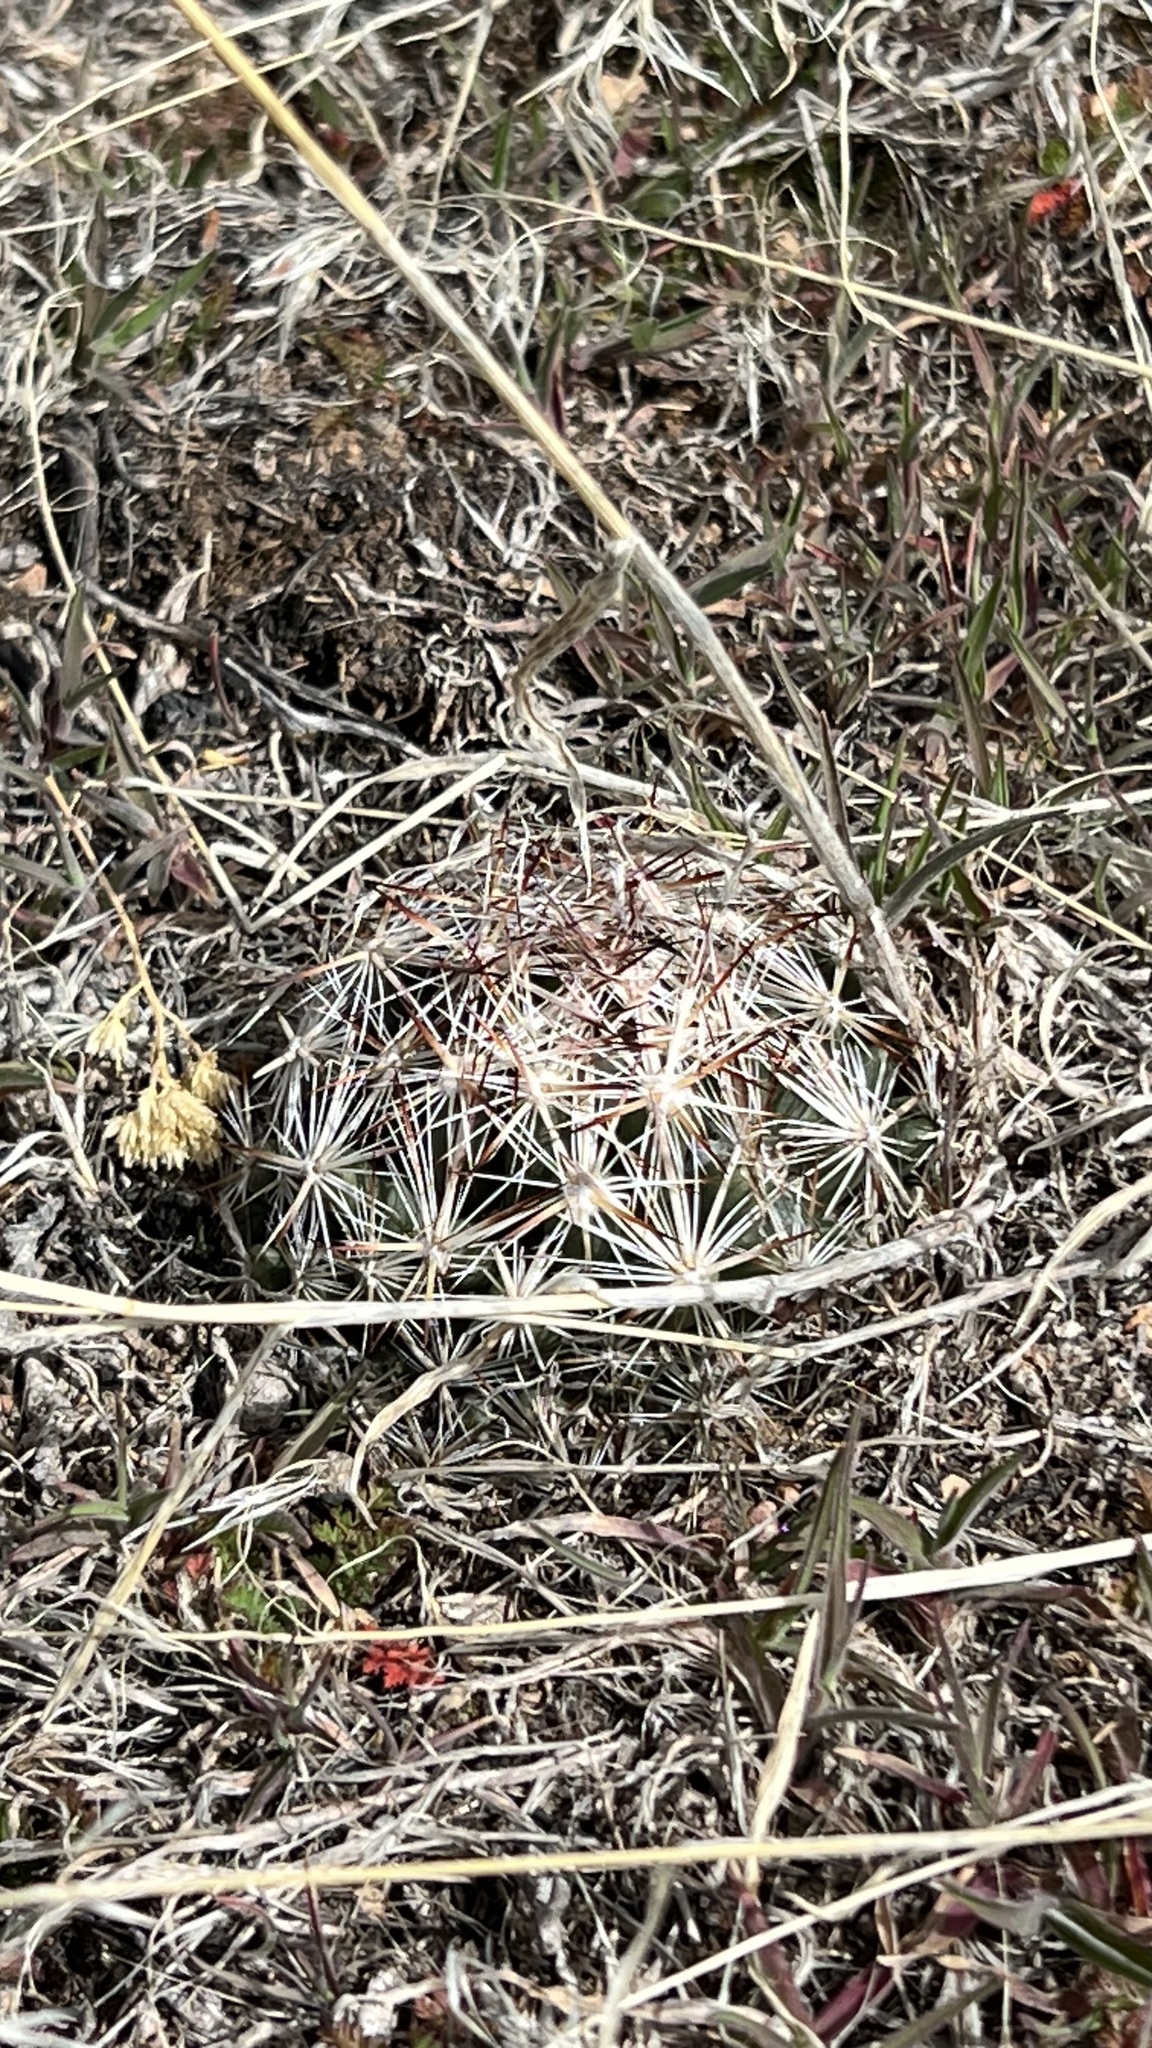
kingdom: Plantae
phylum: Tracheophyta
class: Magnoliopsida
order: Caryophyllales
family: Cactaceae
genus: Pelecyphora
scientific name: Pelecyphora vivipara
